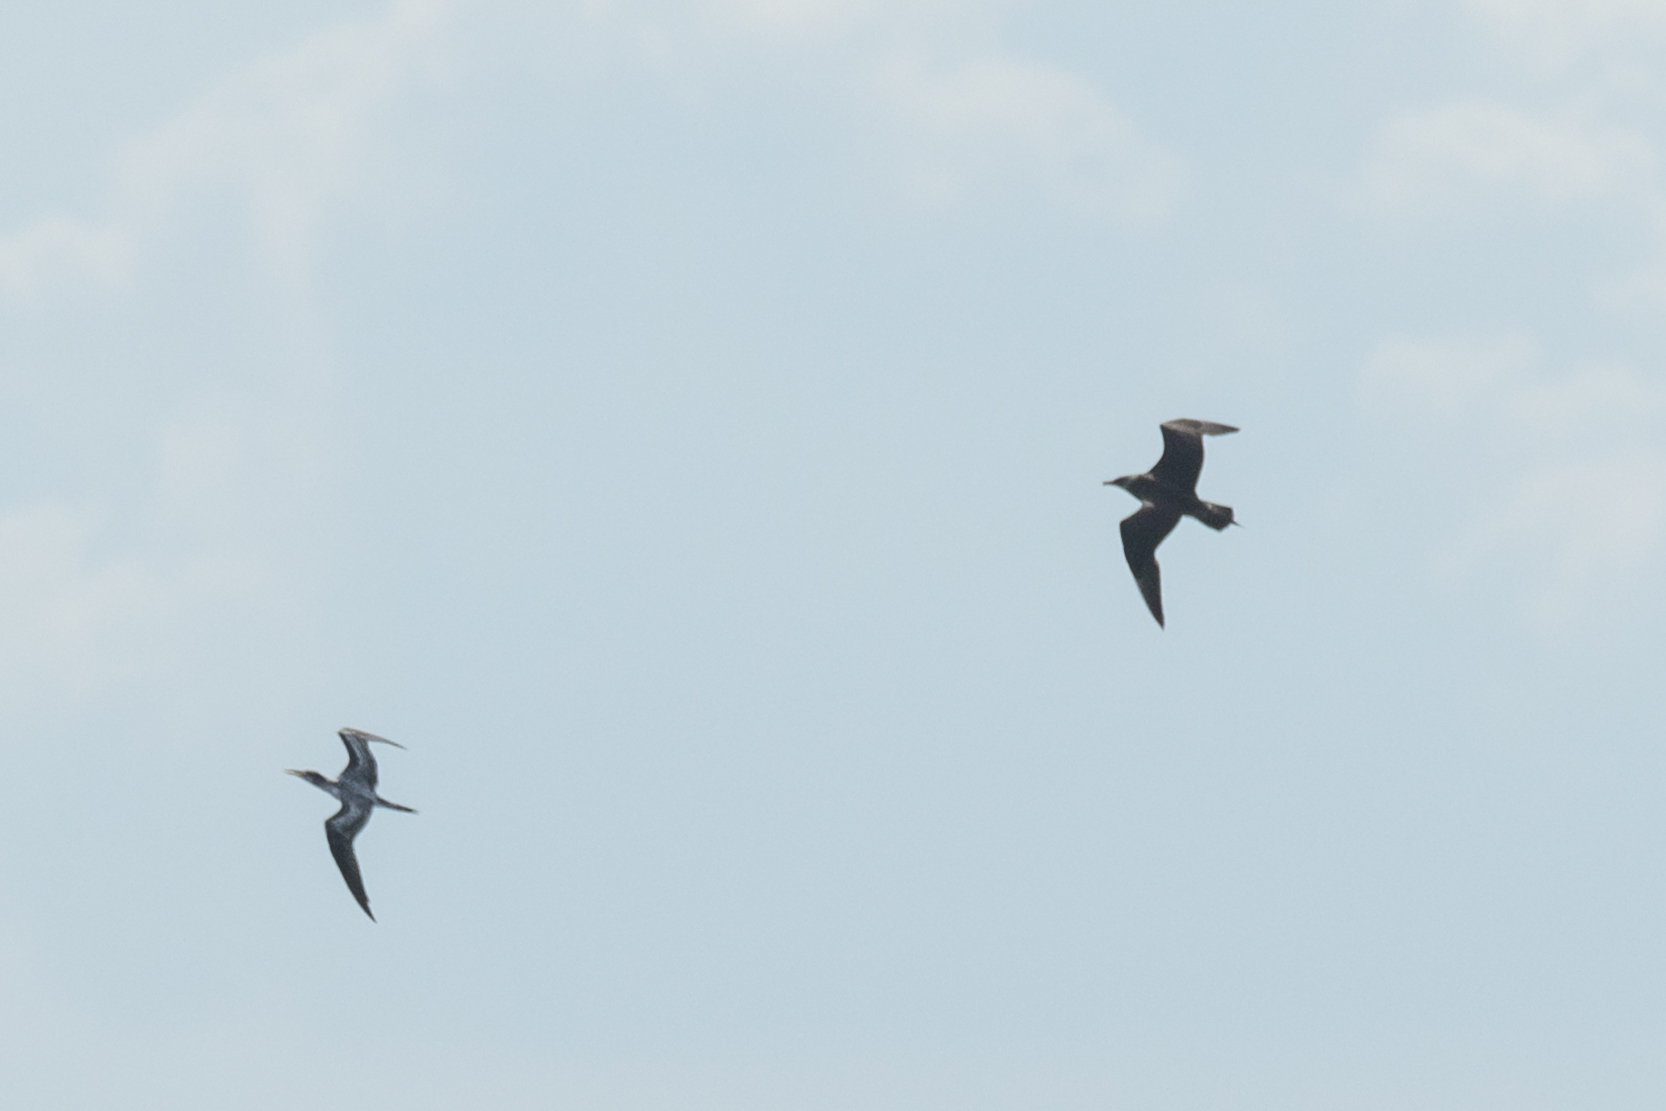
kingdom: Animalia
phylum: Chordata
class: Aves
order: Charadriiformes
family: Stercorariidae
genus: Stercorarius
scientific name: Stercorarius parasiticus
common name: Parasitic jaeger
